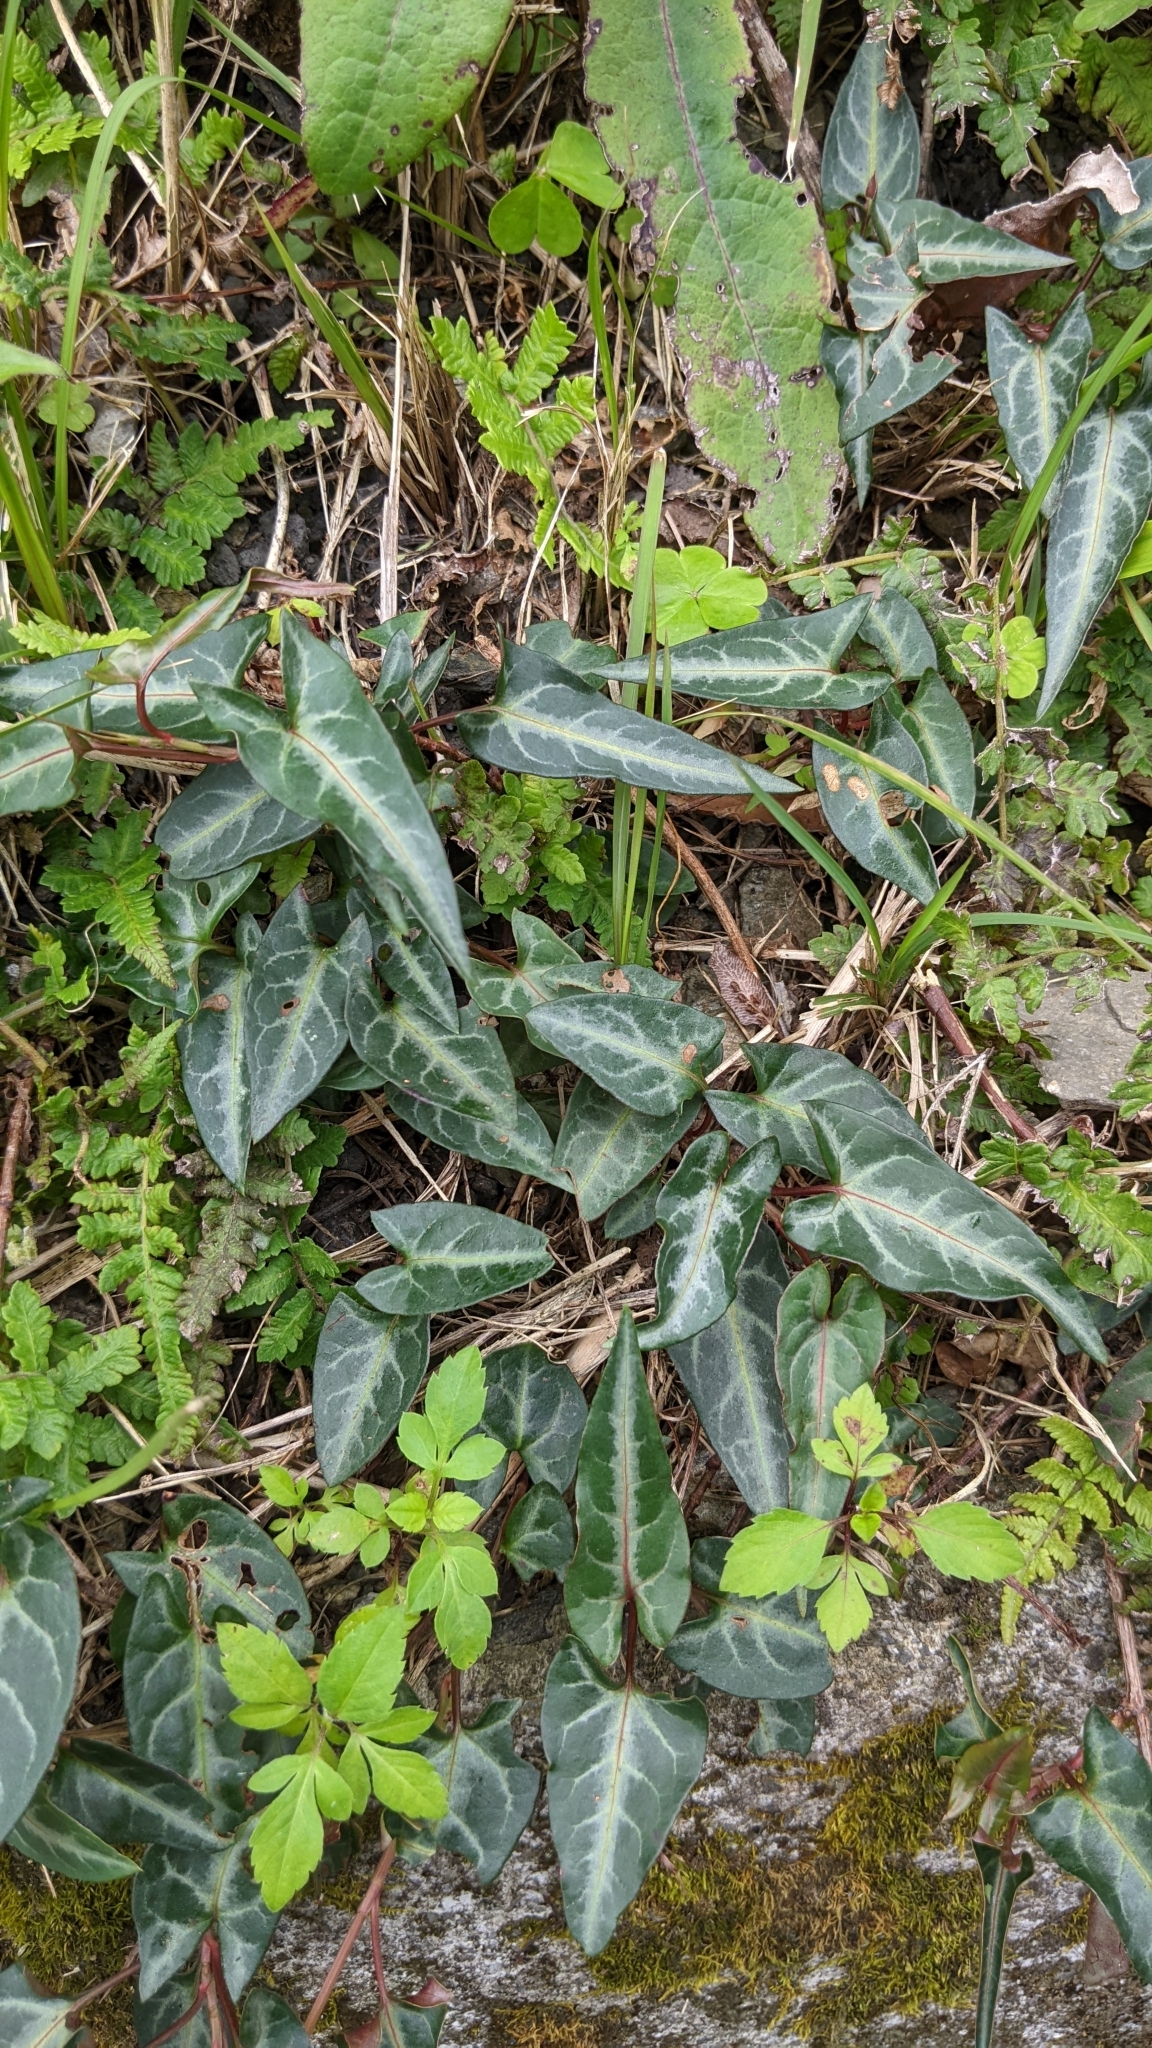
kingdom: Plantae
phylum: Tracheophyta
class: Magnoliopsida
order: Caryophyllales
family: Polygonaceae
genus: Reynoutria
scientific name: Reynoutria multiflora
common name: Chinese fleeceflower
